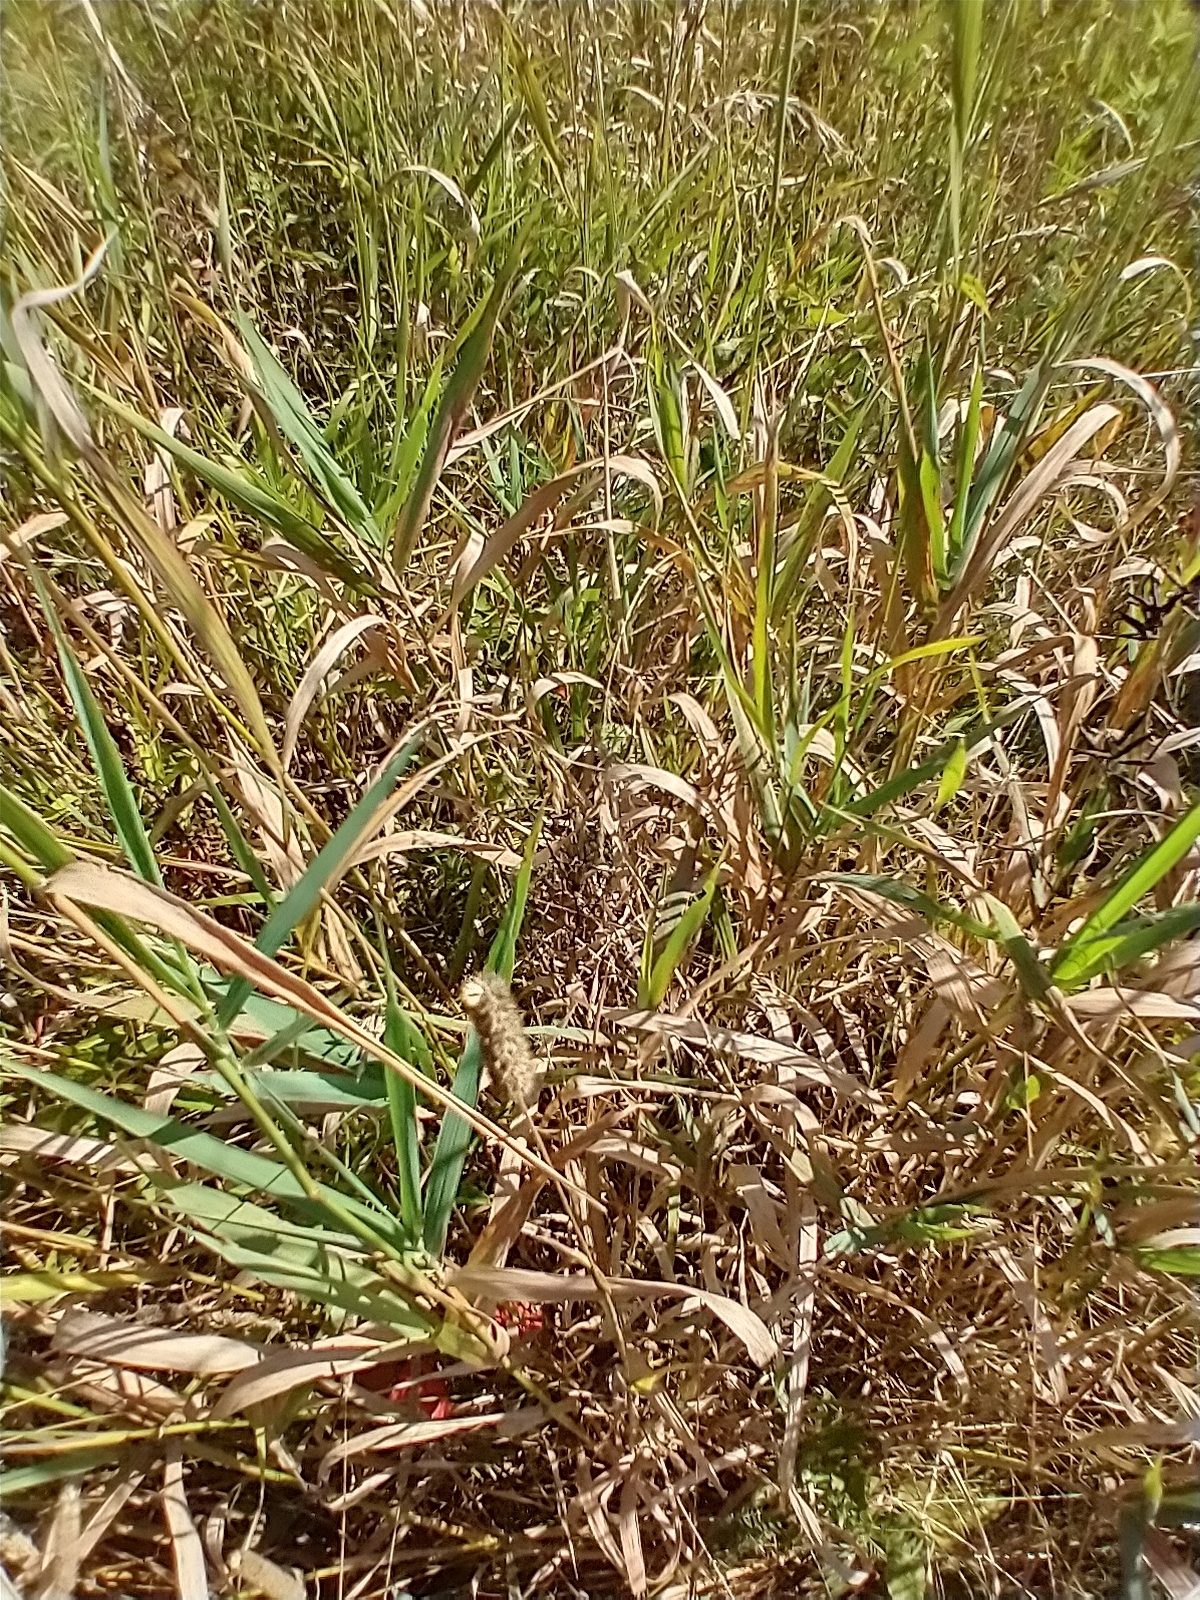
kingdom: Plantae
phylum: Tracheophyta
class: Liliopsida
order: Poales
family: Poaceae
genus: Phalaris
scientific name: Phalaris arundinacea
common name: Reed canary-grass
